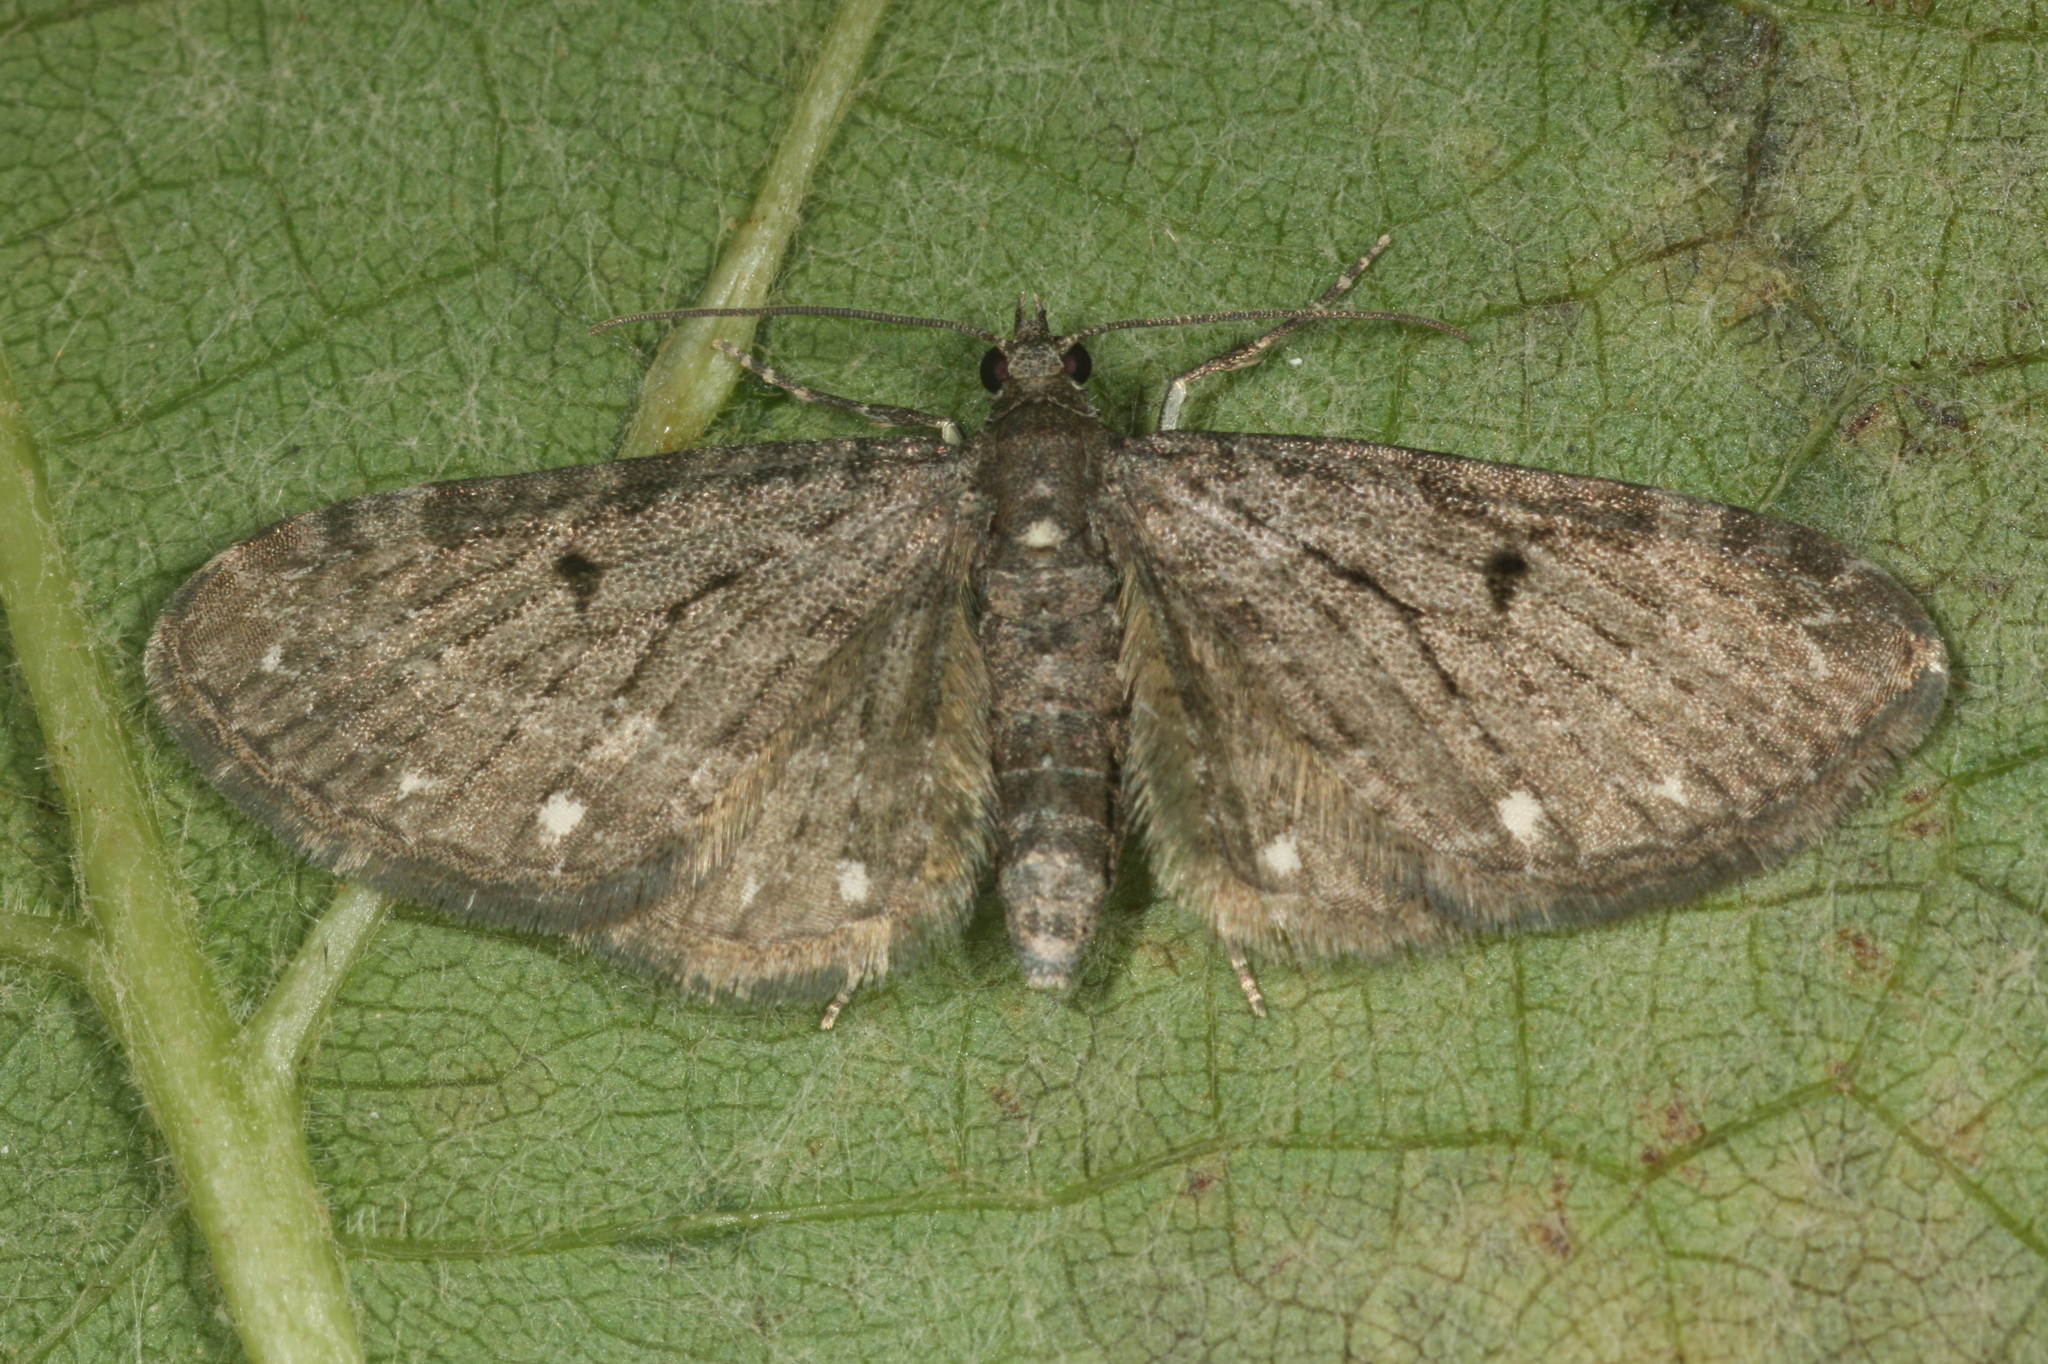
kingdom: Animalia
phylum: Arthropoda
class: Insecta
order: Lepidoptera
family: Geometridae
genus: Eupithecia
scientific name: Eupithecia tripunctaria
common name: White-spotted pug
